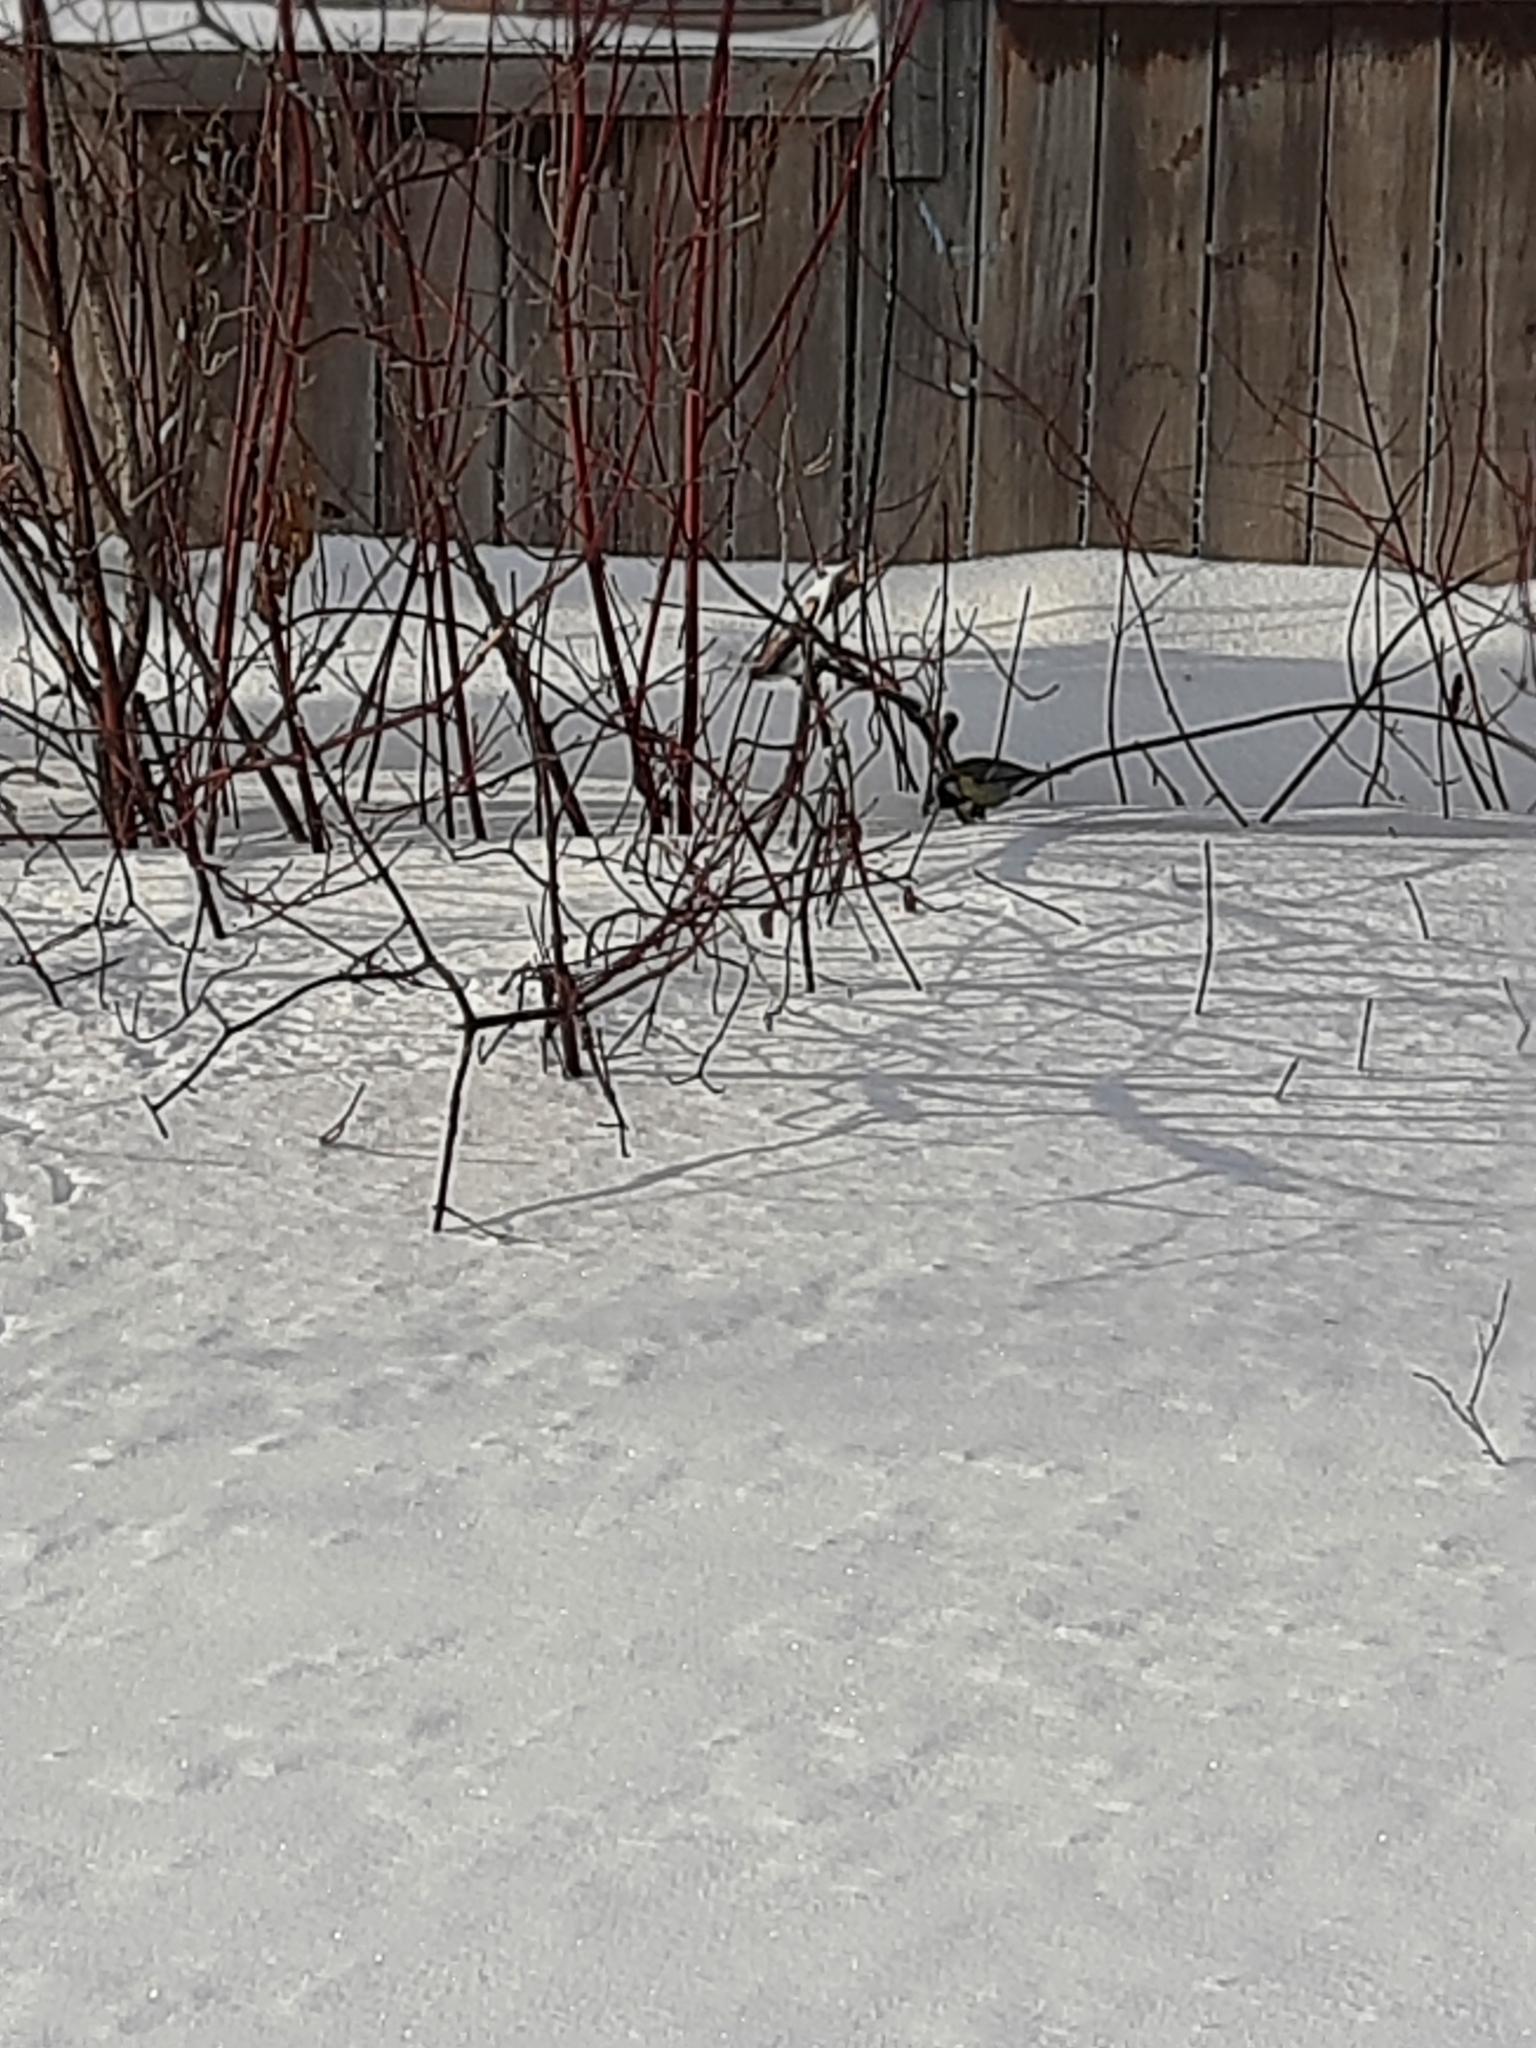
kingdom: Plantae
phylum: Tracheophyta
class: Magnoliopsida
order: Cornales
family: Cornaceae
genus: Cornus
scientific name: Cornus alba
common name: White dogwood
